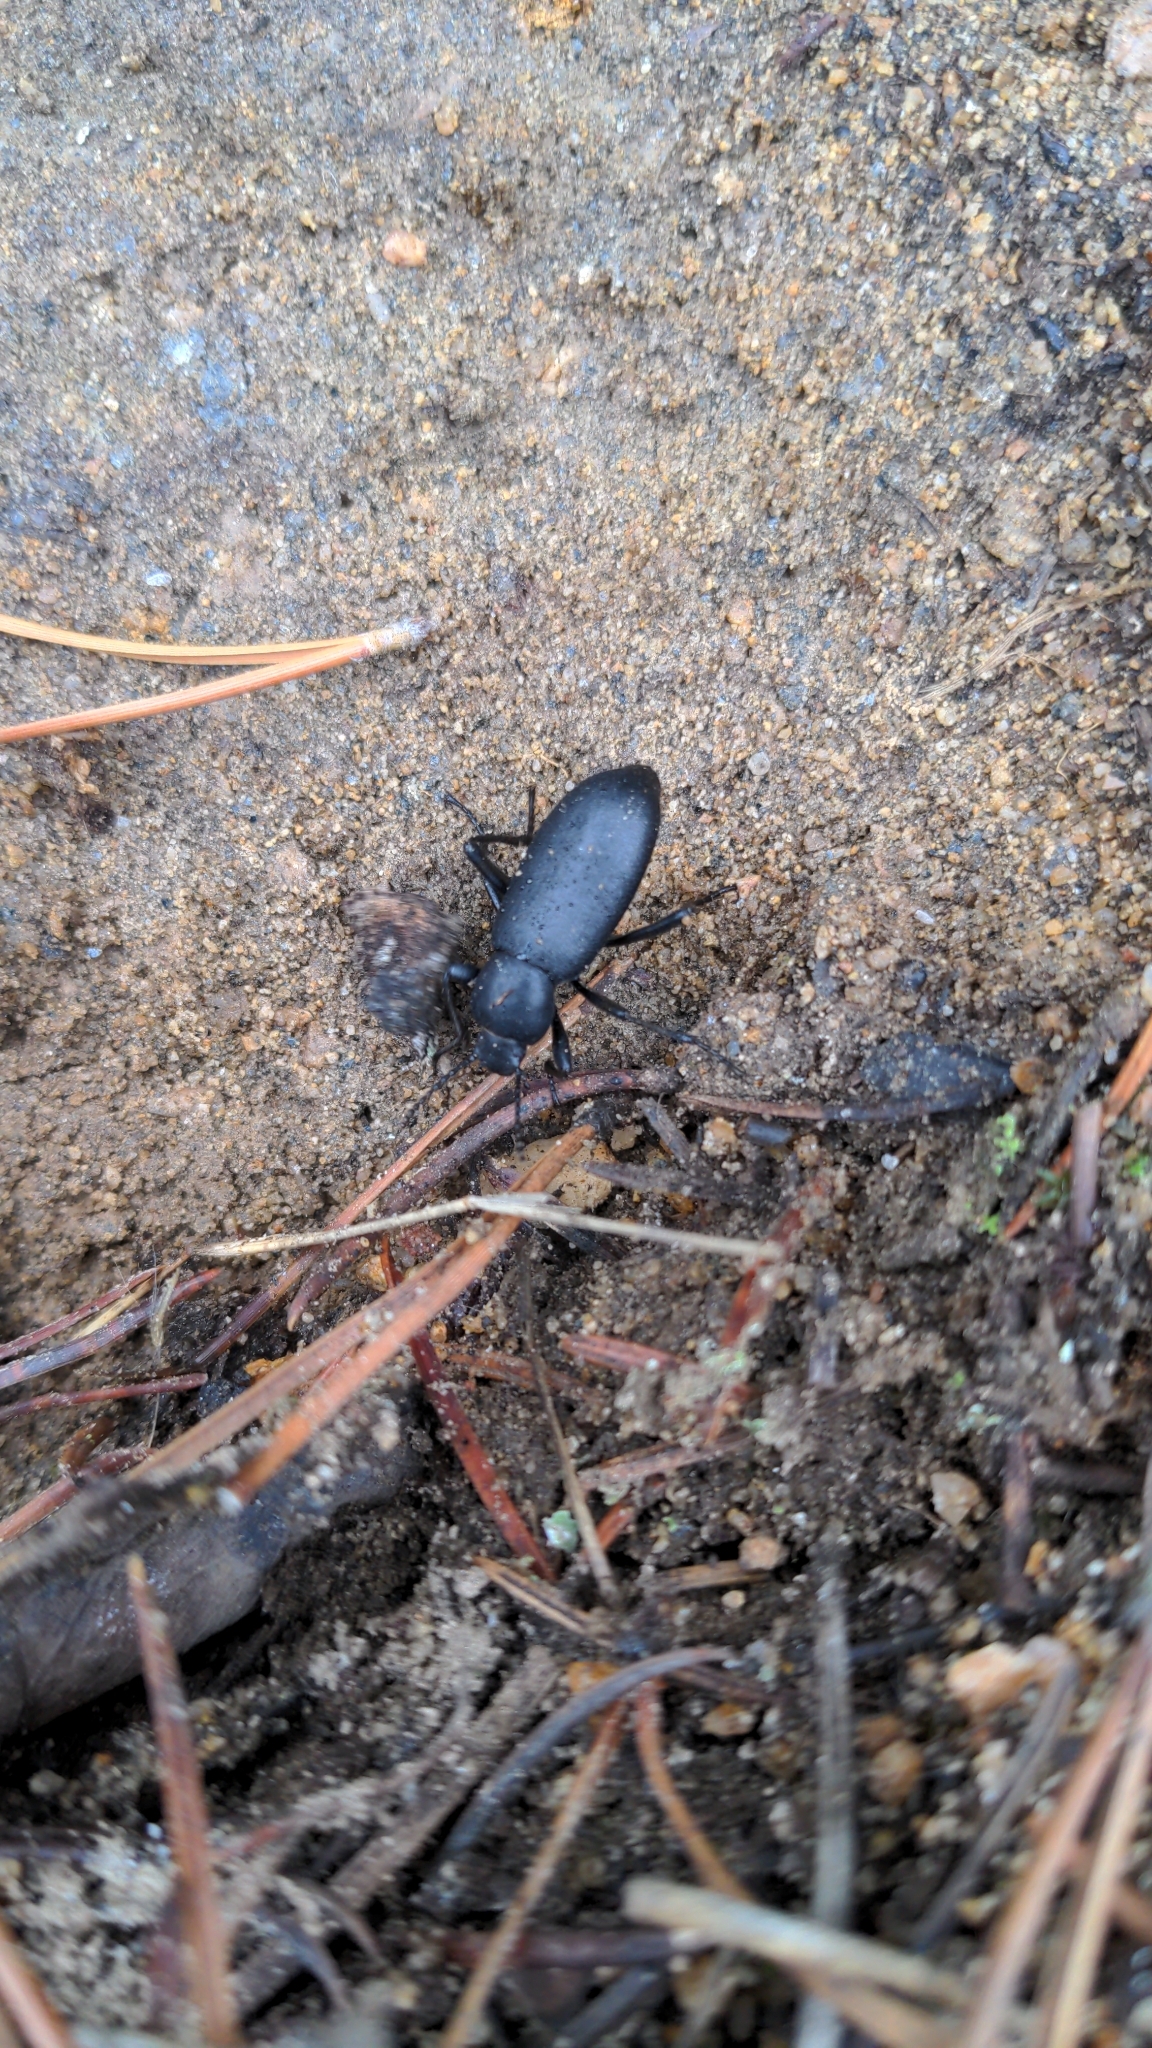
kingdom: Animalia
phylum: Arthropoda
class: Insecta
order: Coleoptera
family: Tenebrionidae
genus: Eleodes
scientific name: Eleodes nigrina
